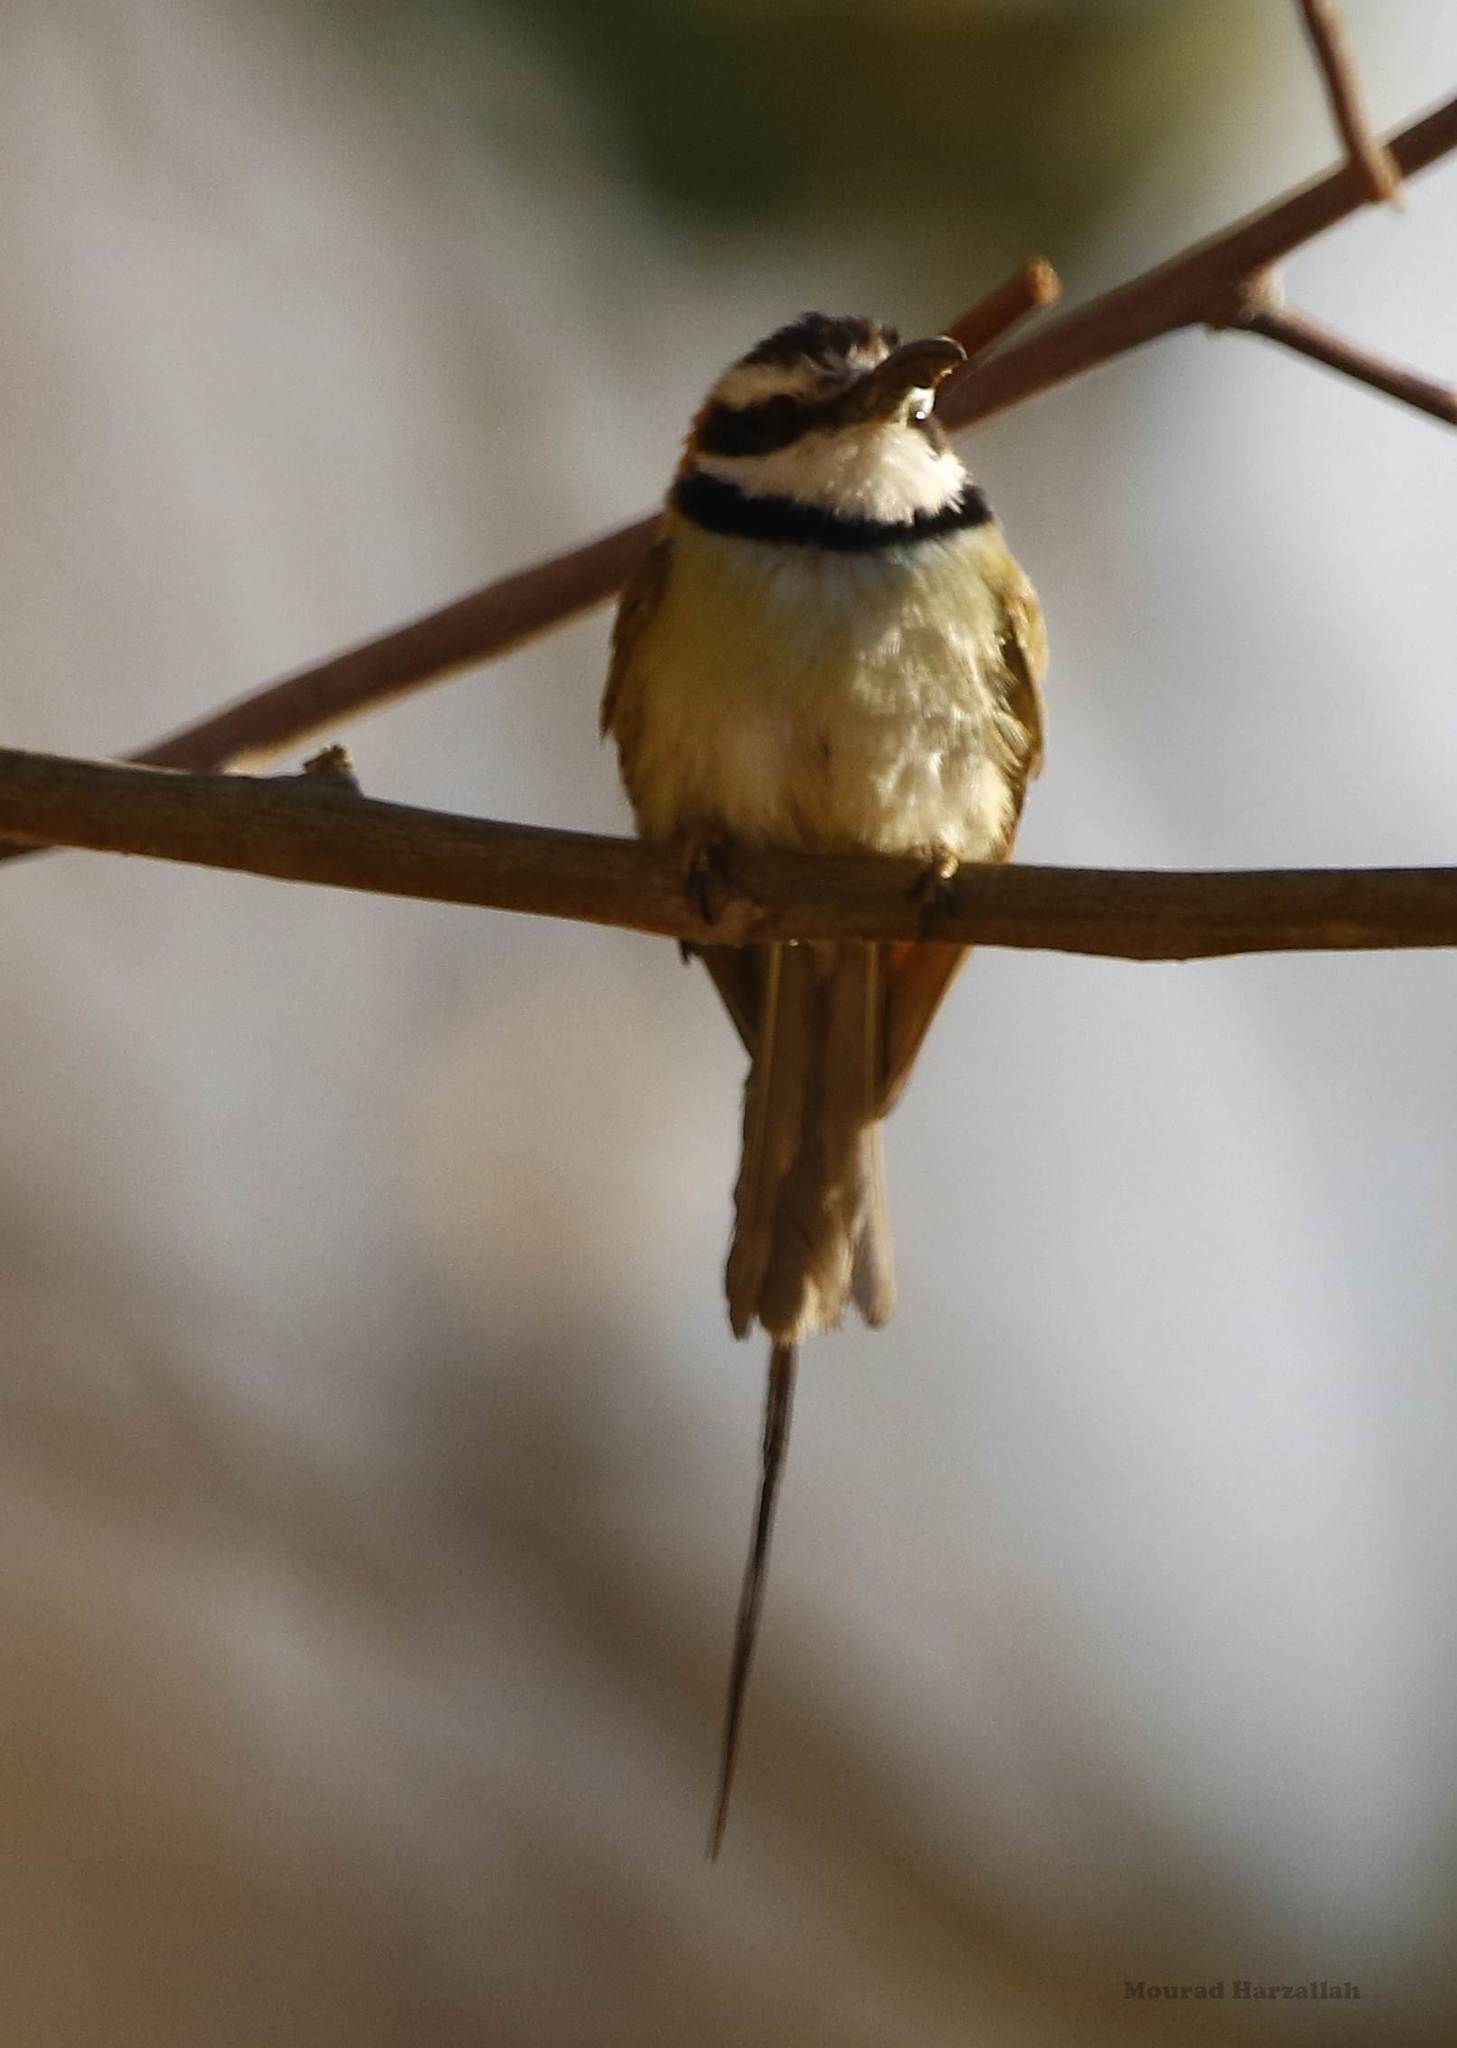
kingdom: Animalia
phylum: Chordata
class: Aves
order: Coraciiformes
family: Meropidae
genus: Merops
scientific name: Merops albicollis
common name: White-throated bee-eater
